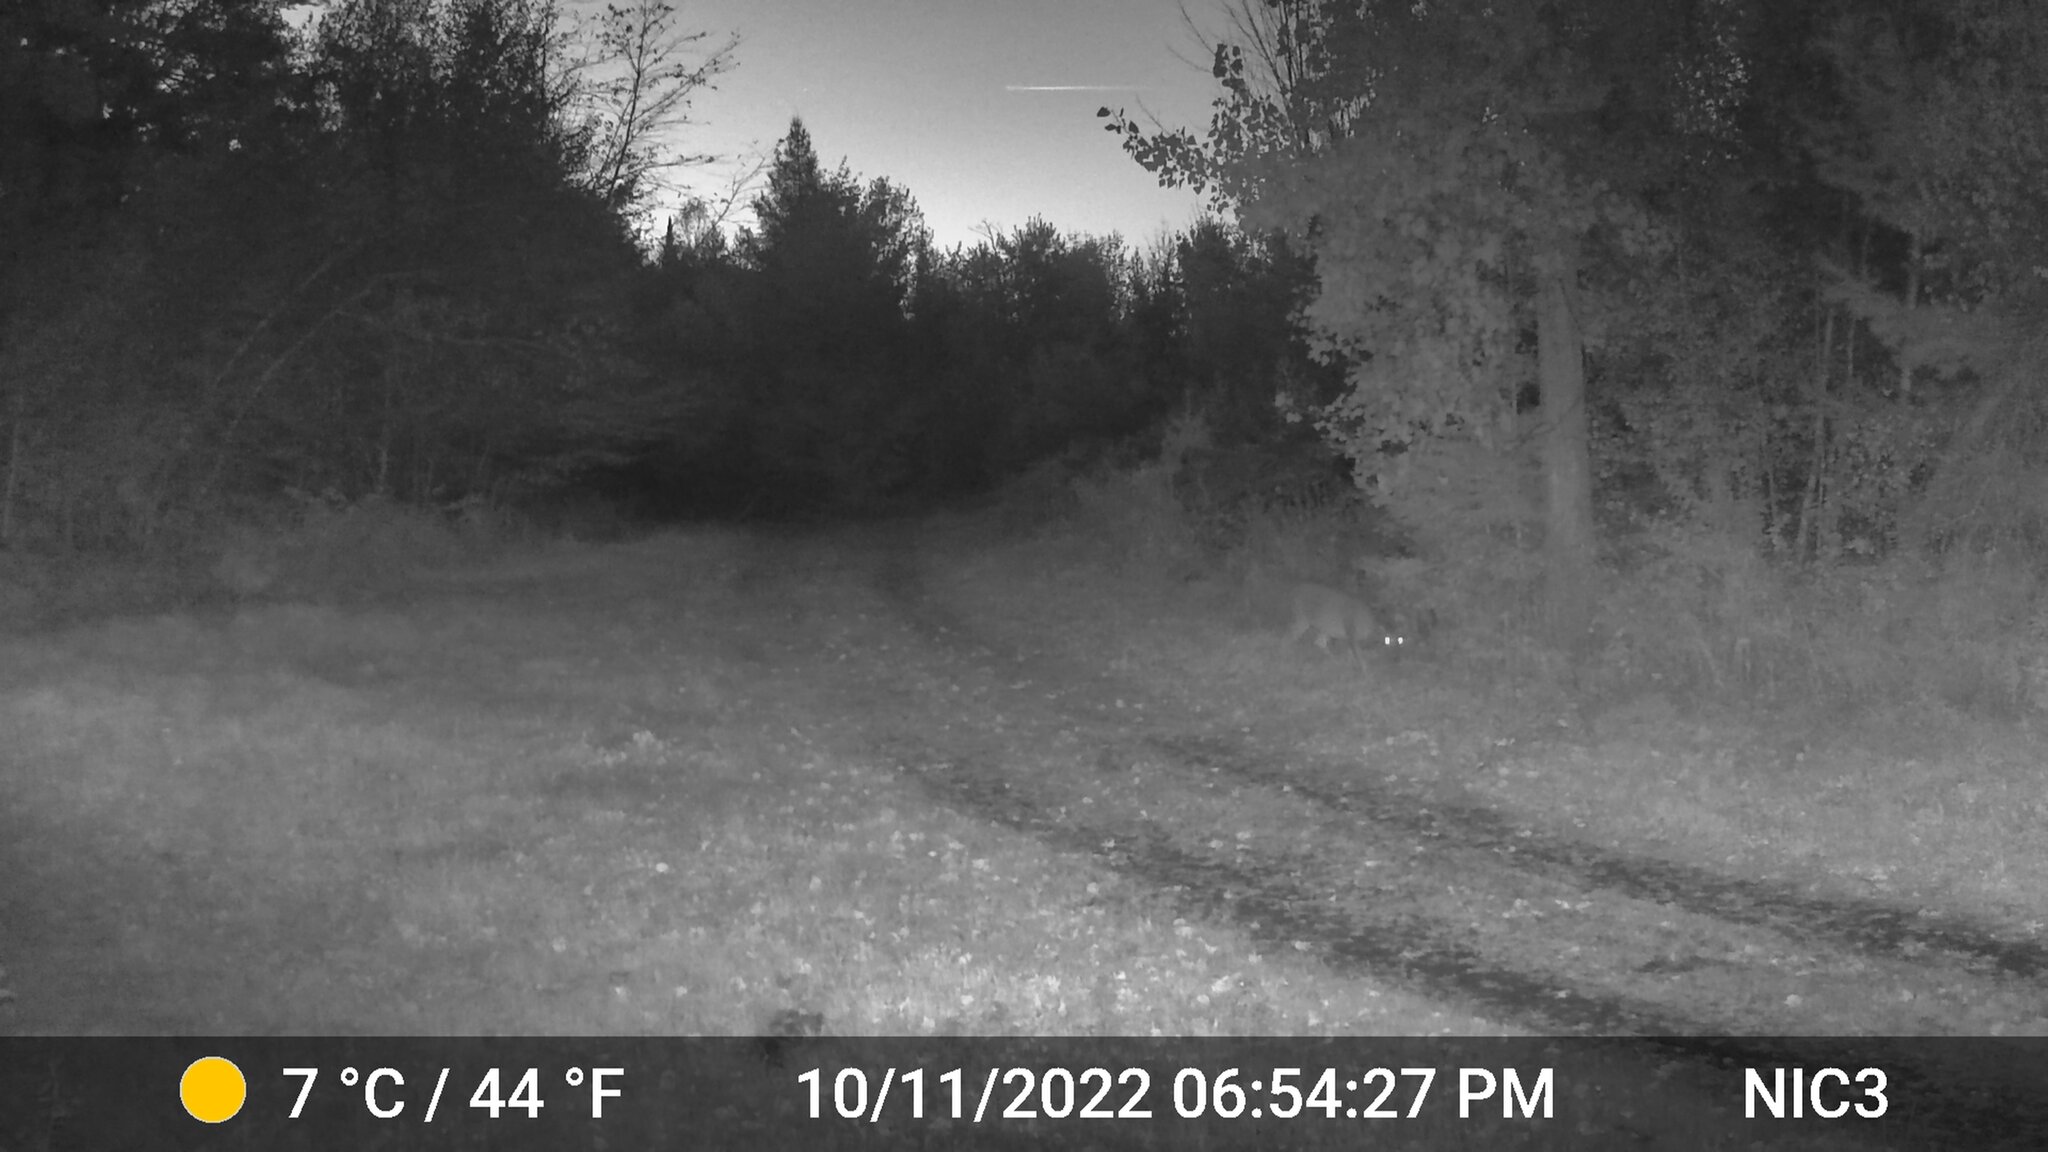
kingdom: Animalia
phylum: Chordata
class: Mammalia
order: Artiodactyla
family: Cervidae
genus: Odocoileus
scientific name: Odocoileus virginianus
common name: White-tailed deer
